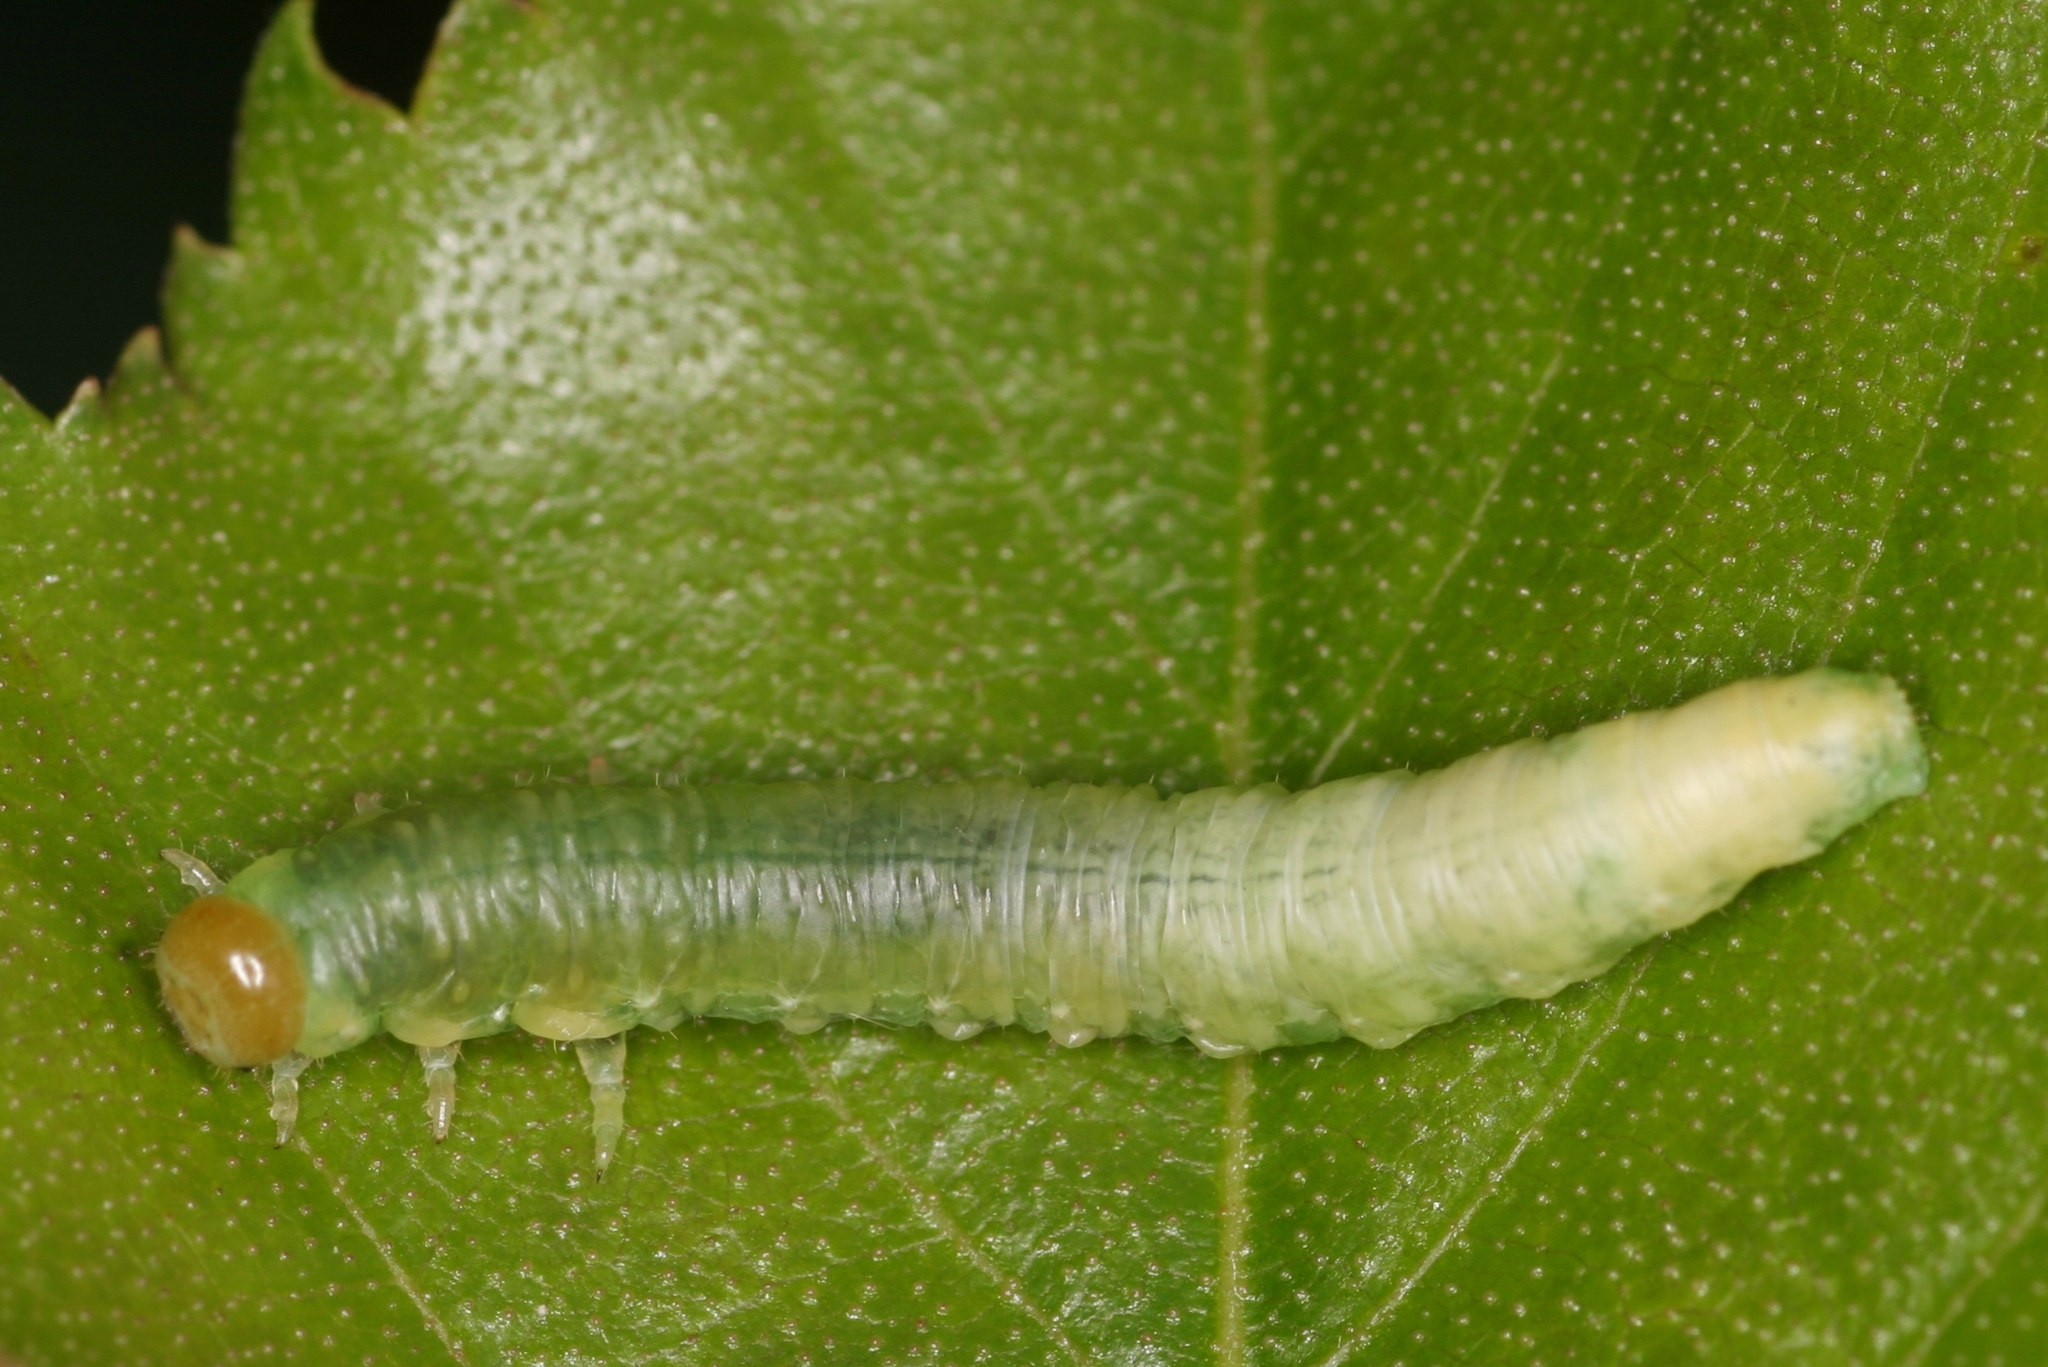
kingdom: Animalia
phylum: Arthropoda
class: Insecta
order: Hymenoptera
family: Tenthredinidae
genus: Hemichroa
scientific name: Hemichroa australis
